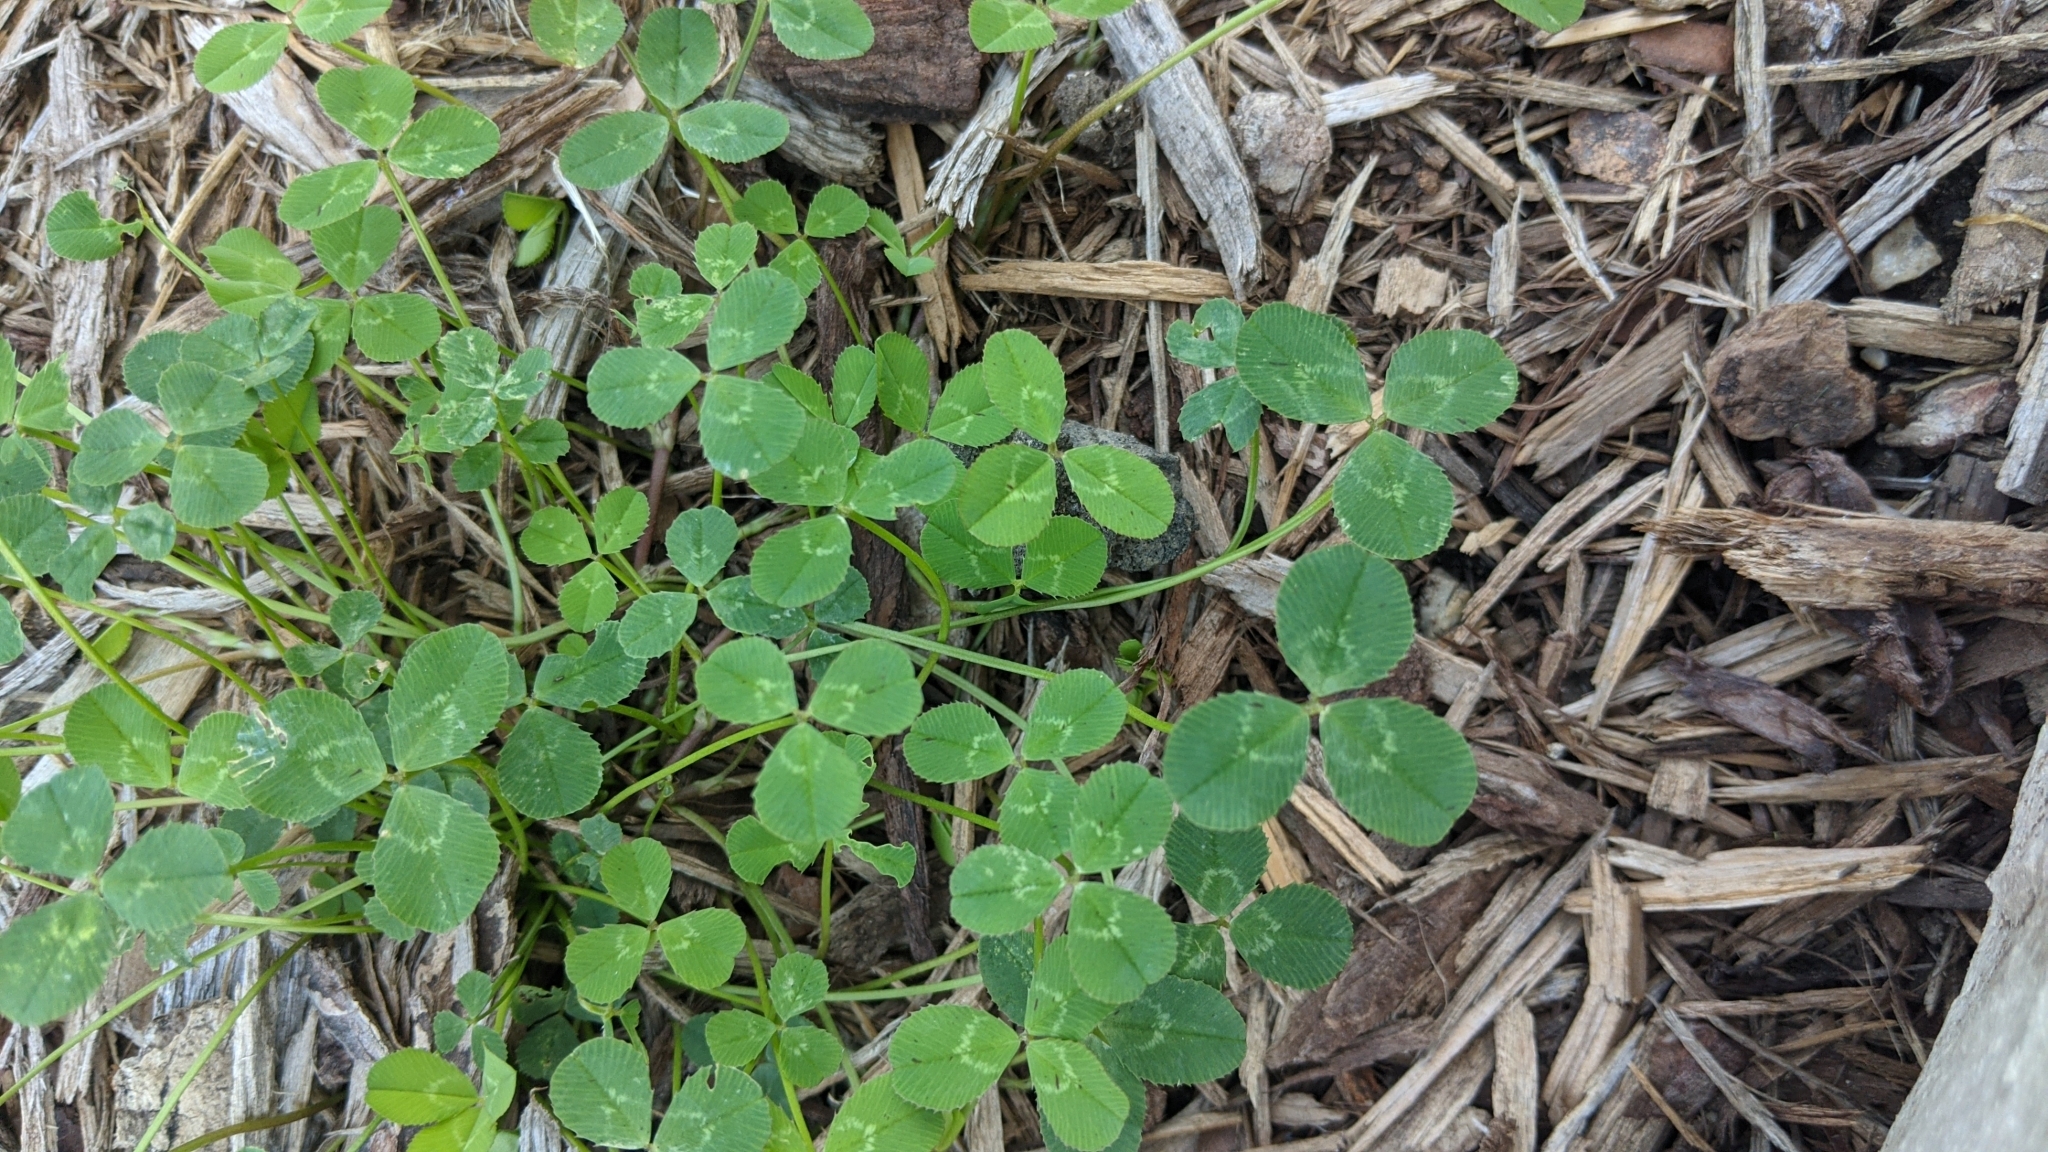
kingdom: Plantae
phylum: Tracheophyta
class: Magnoliopsida
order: Fabales
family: Fabaceae
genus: Trifolium
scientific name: Trifolium repens
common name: White clover
